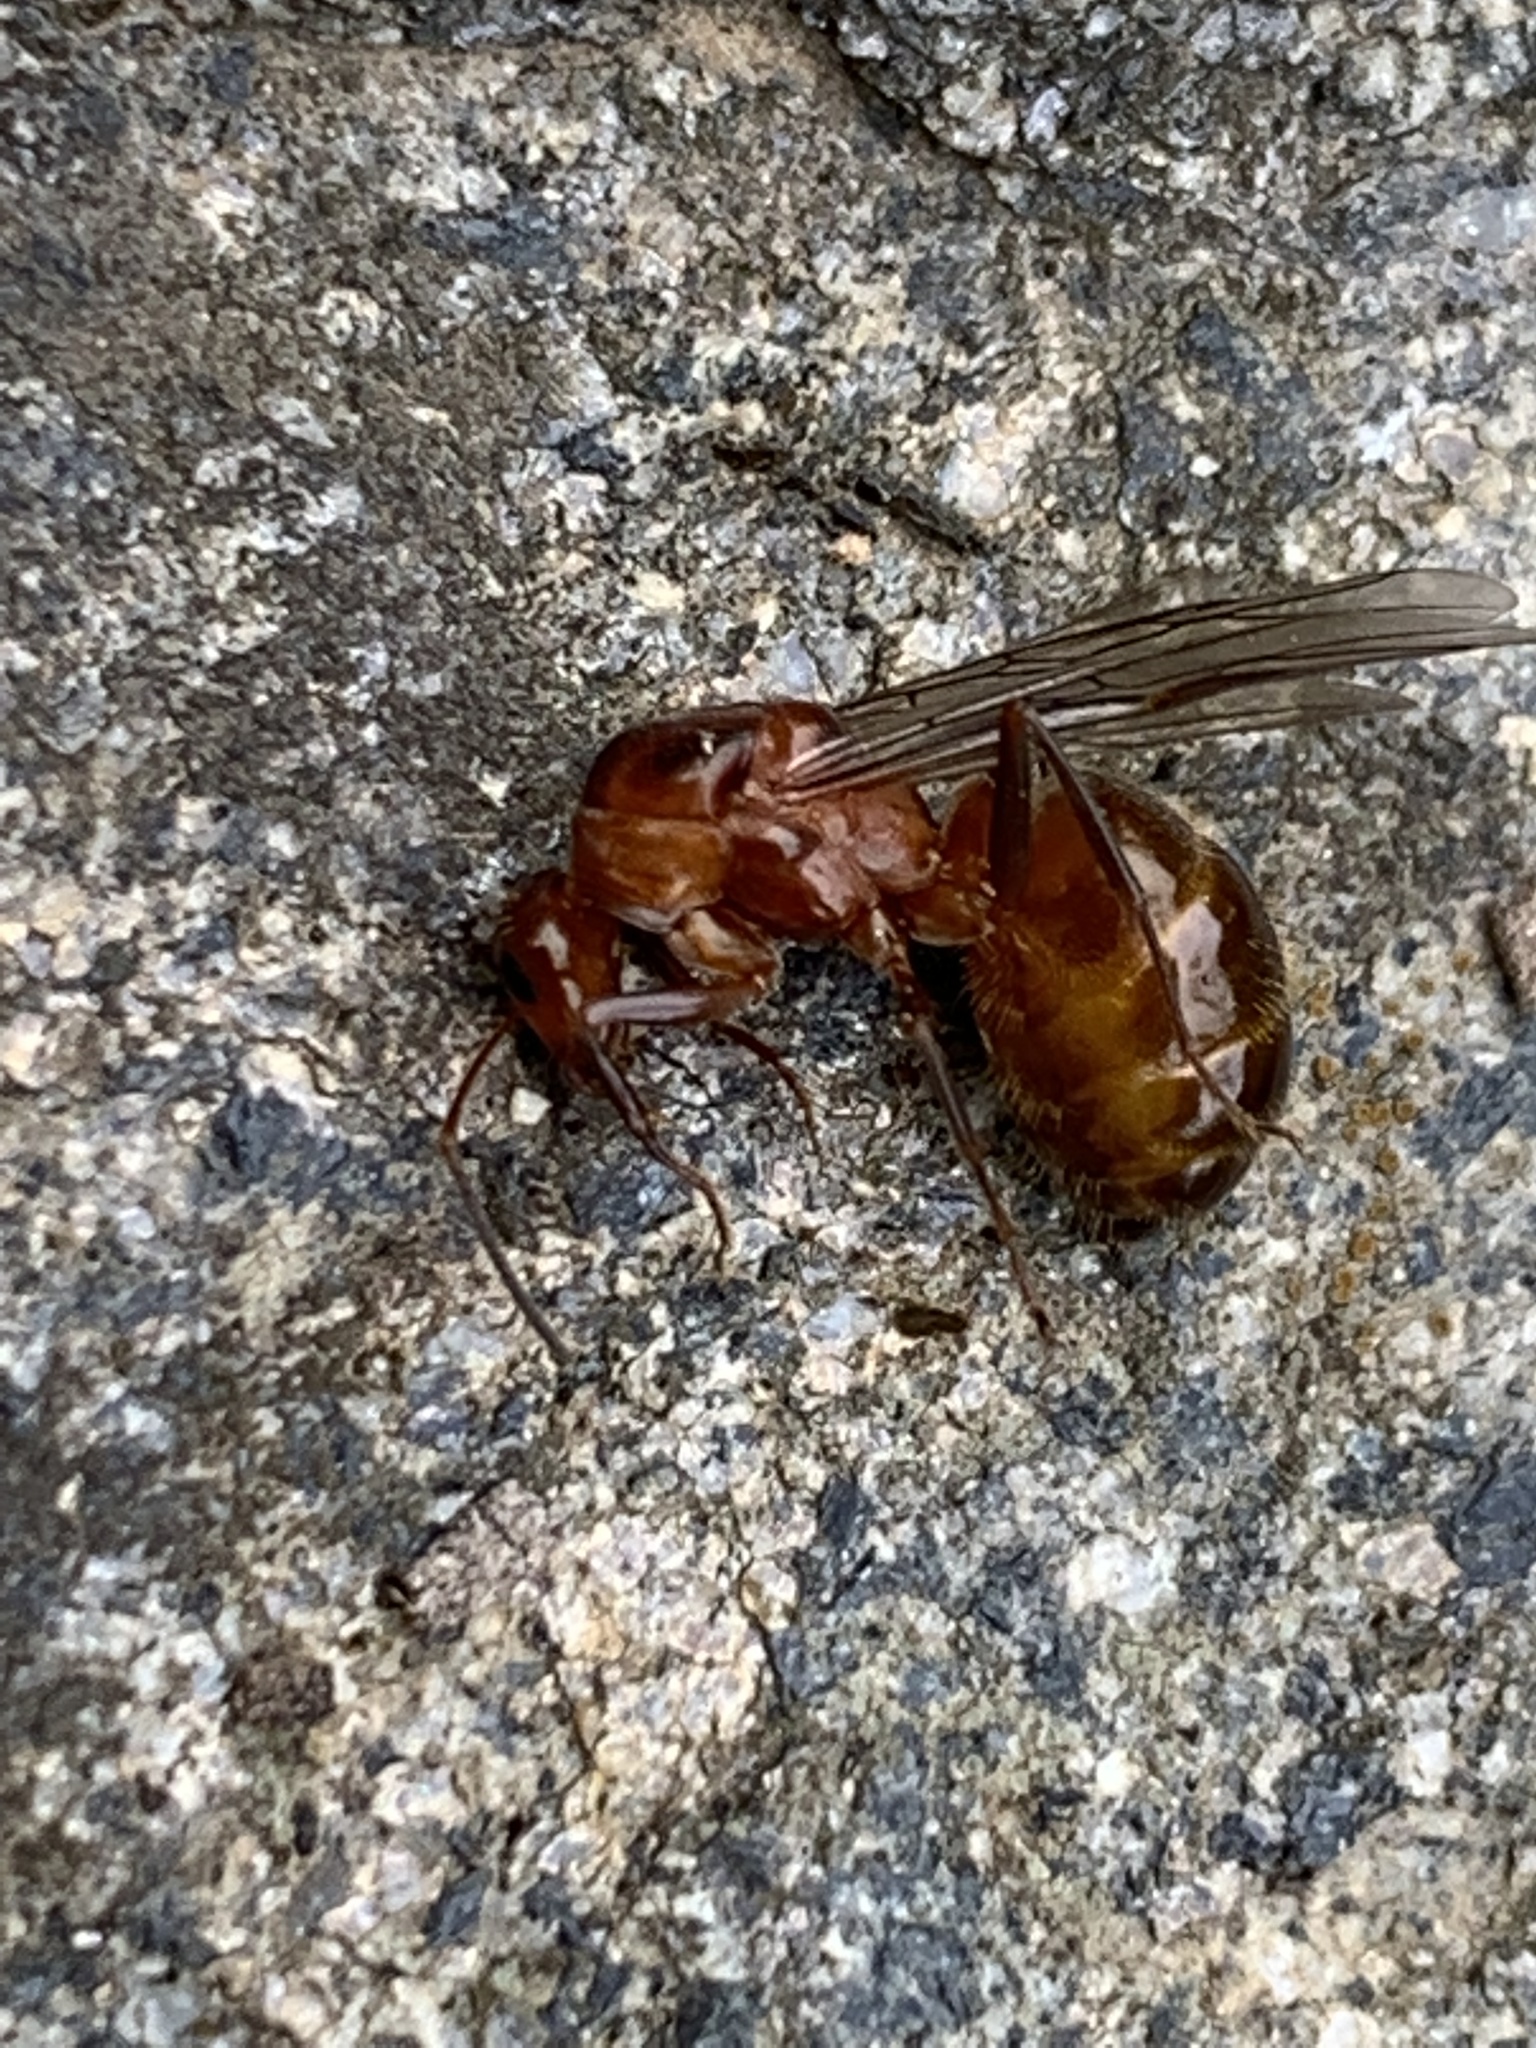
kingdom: Animalia
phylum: Arthropoda
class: Insecta
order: Hymenoptera
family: Formicidae
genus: Formica
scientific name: Formica incerta
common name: Uncertain field ant
